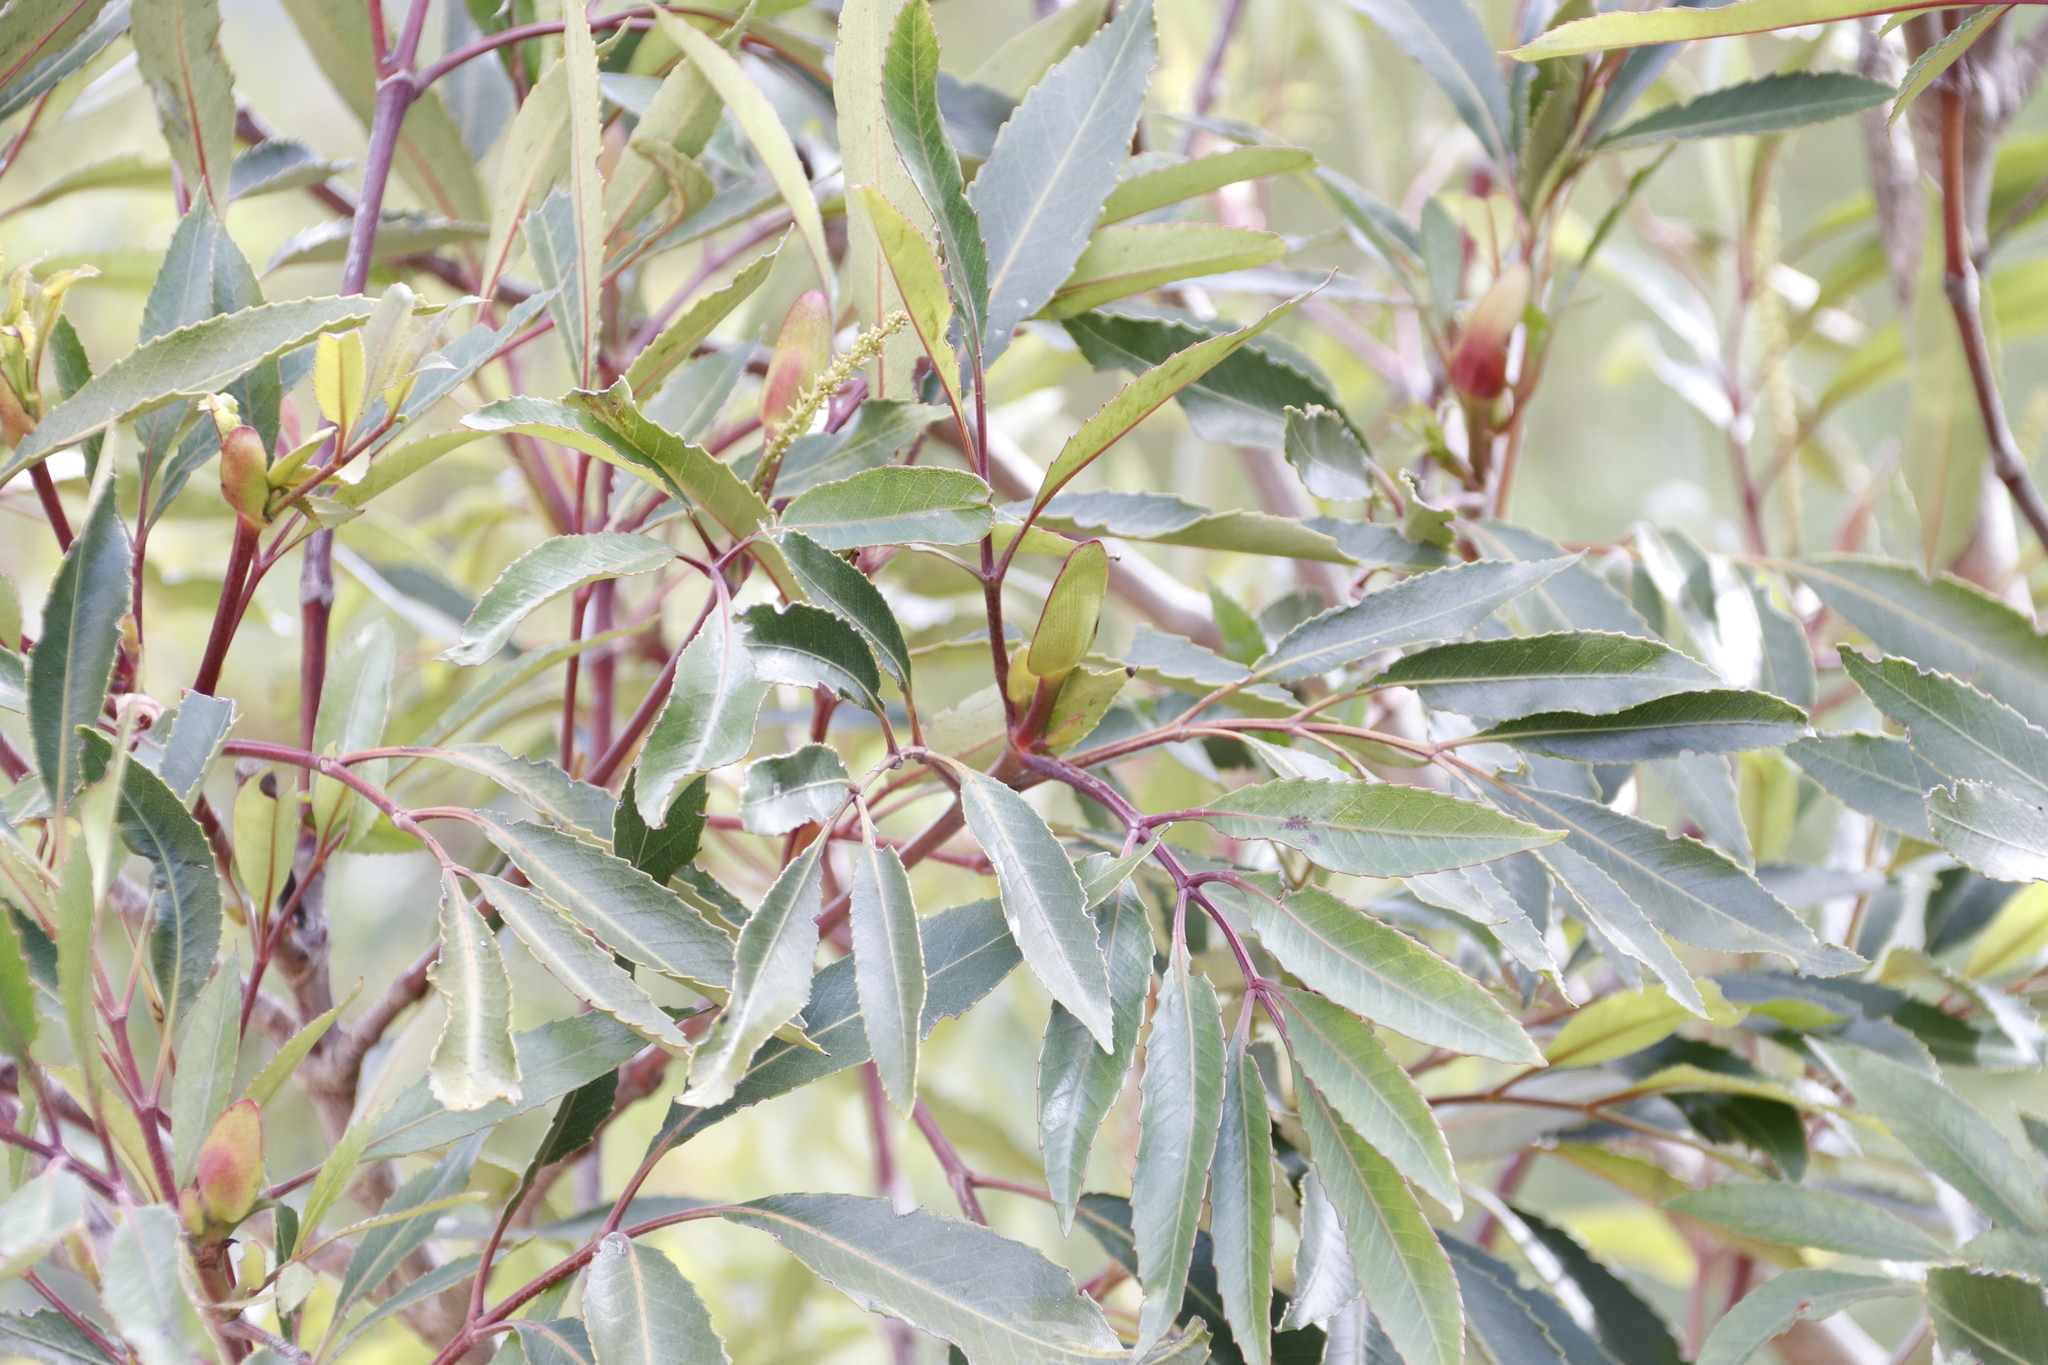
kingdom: Plantae
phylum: Tracheophyta
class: Magnoliopsida
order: Oxalidales
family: Cunoniaceae
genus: Cunonia
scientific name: Cunonia capensis
